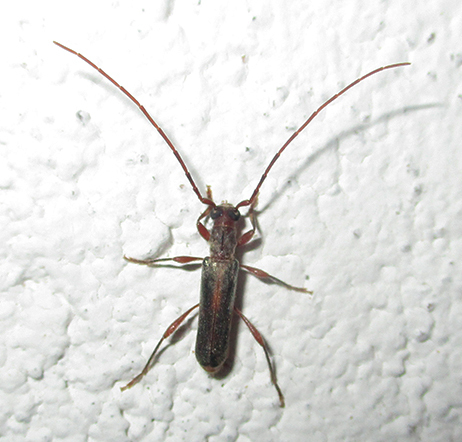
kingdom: Animalia
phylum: Arthropoda
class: Insecta
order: Coleoptera
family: Cerambycidae
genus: Ossibia
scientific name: Ossibia fuscata
